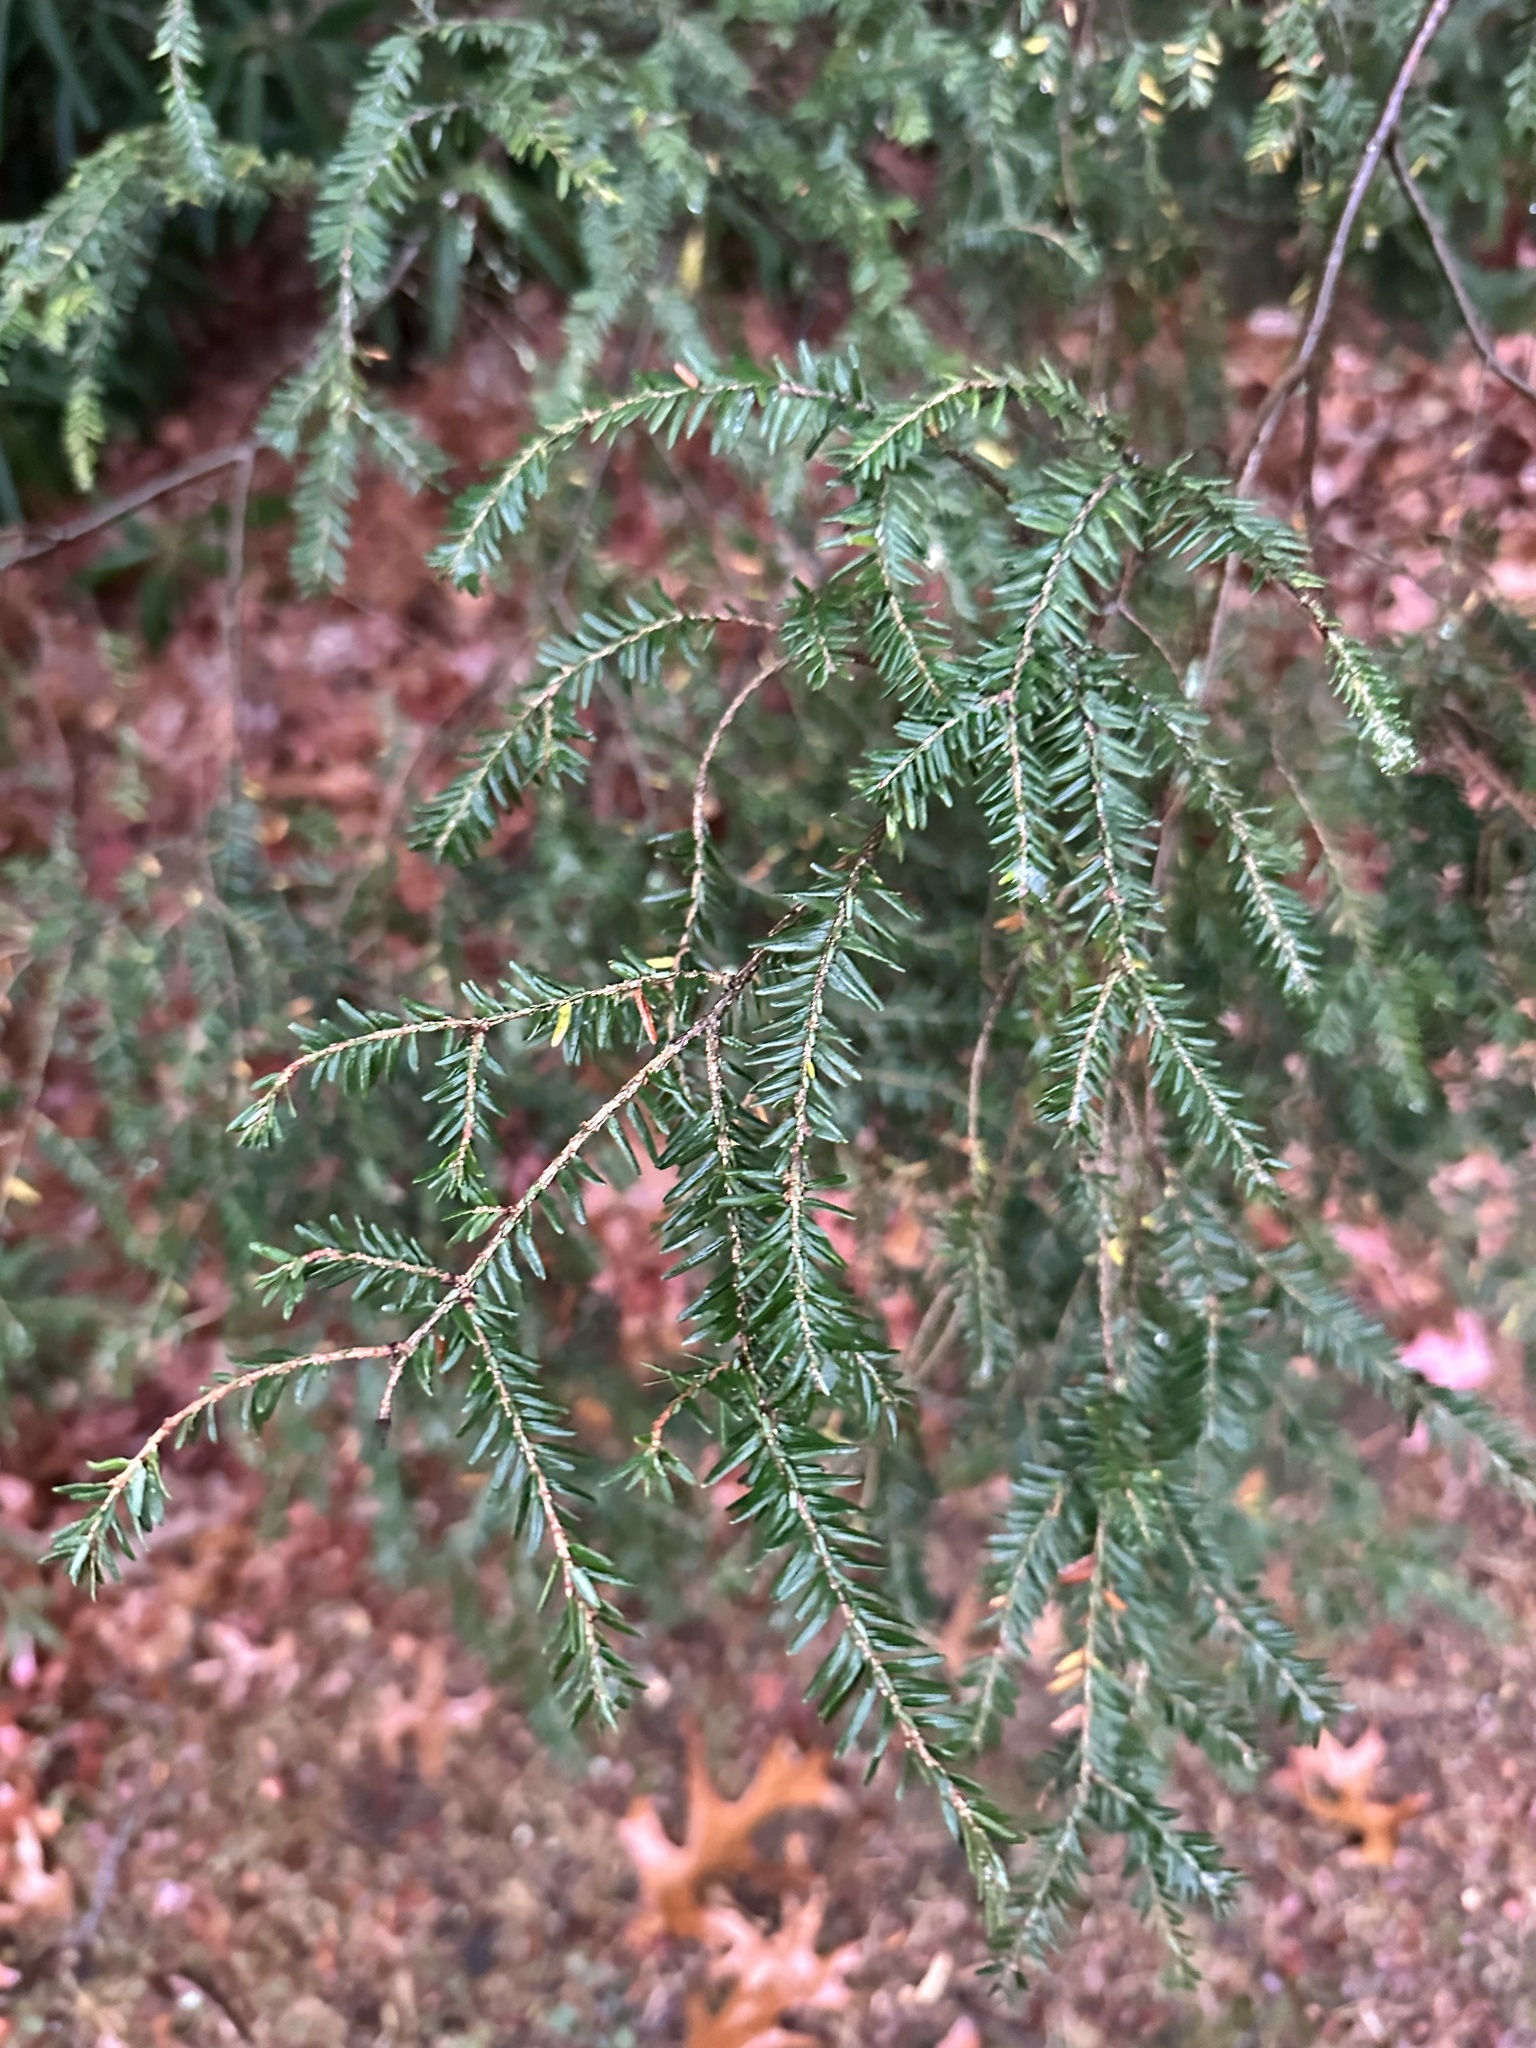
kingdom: Plantae
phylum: Tracheophyta
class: Pinopsida
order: Pinales
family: Pinaceae
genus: Tsuga
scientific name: Tsuga canadensis
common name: Eastern hemlock
